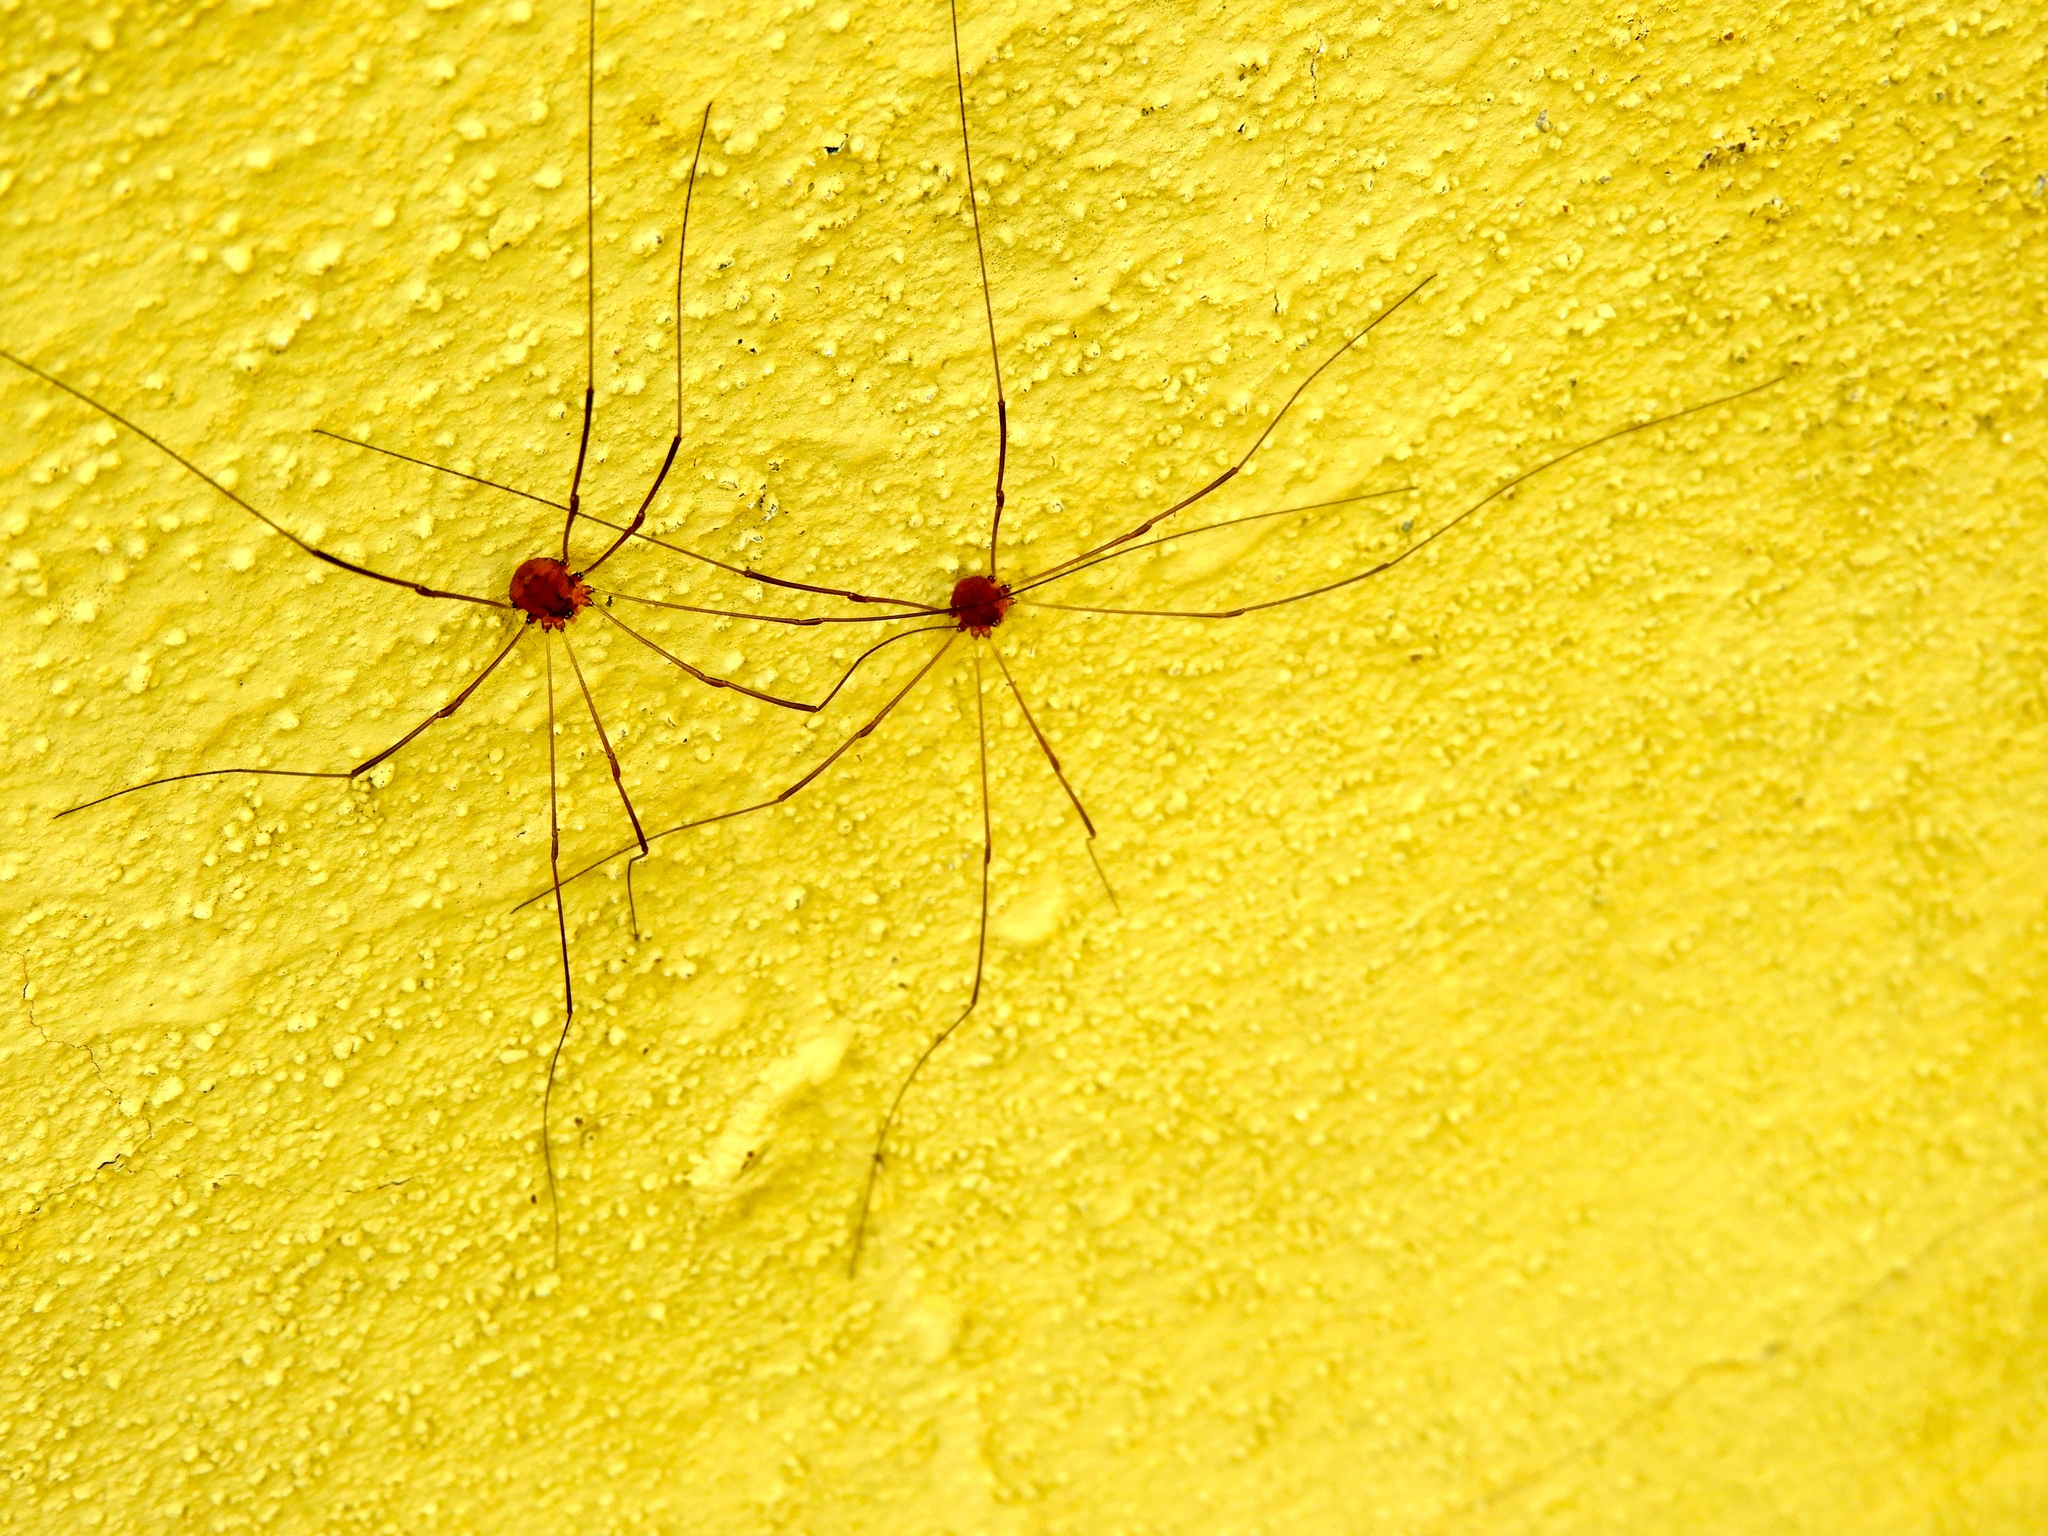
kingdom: Animalia
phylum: Arthropoda
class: Arachnida
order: Opiliones
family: Sclerosomatidae
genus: Leiobunum
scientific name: Leiobunum
